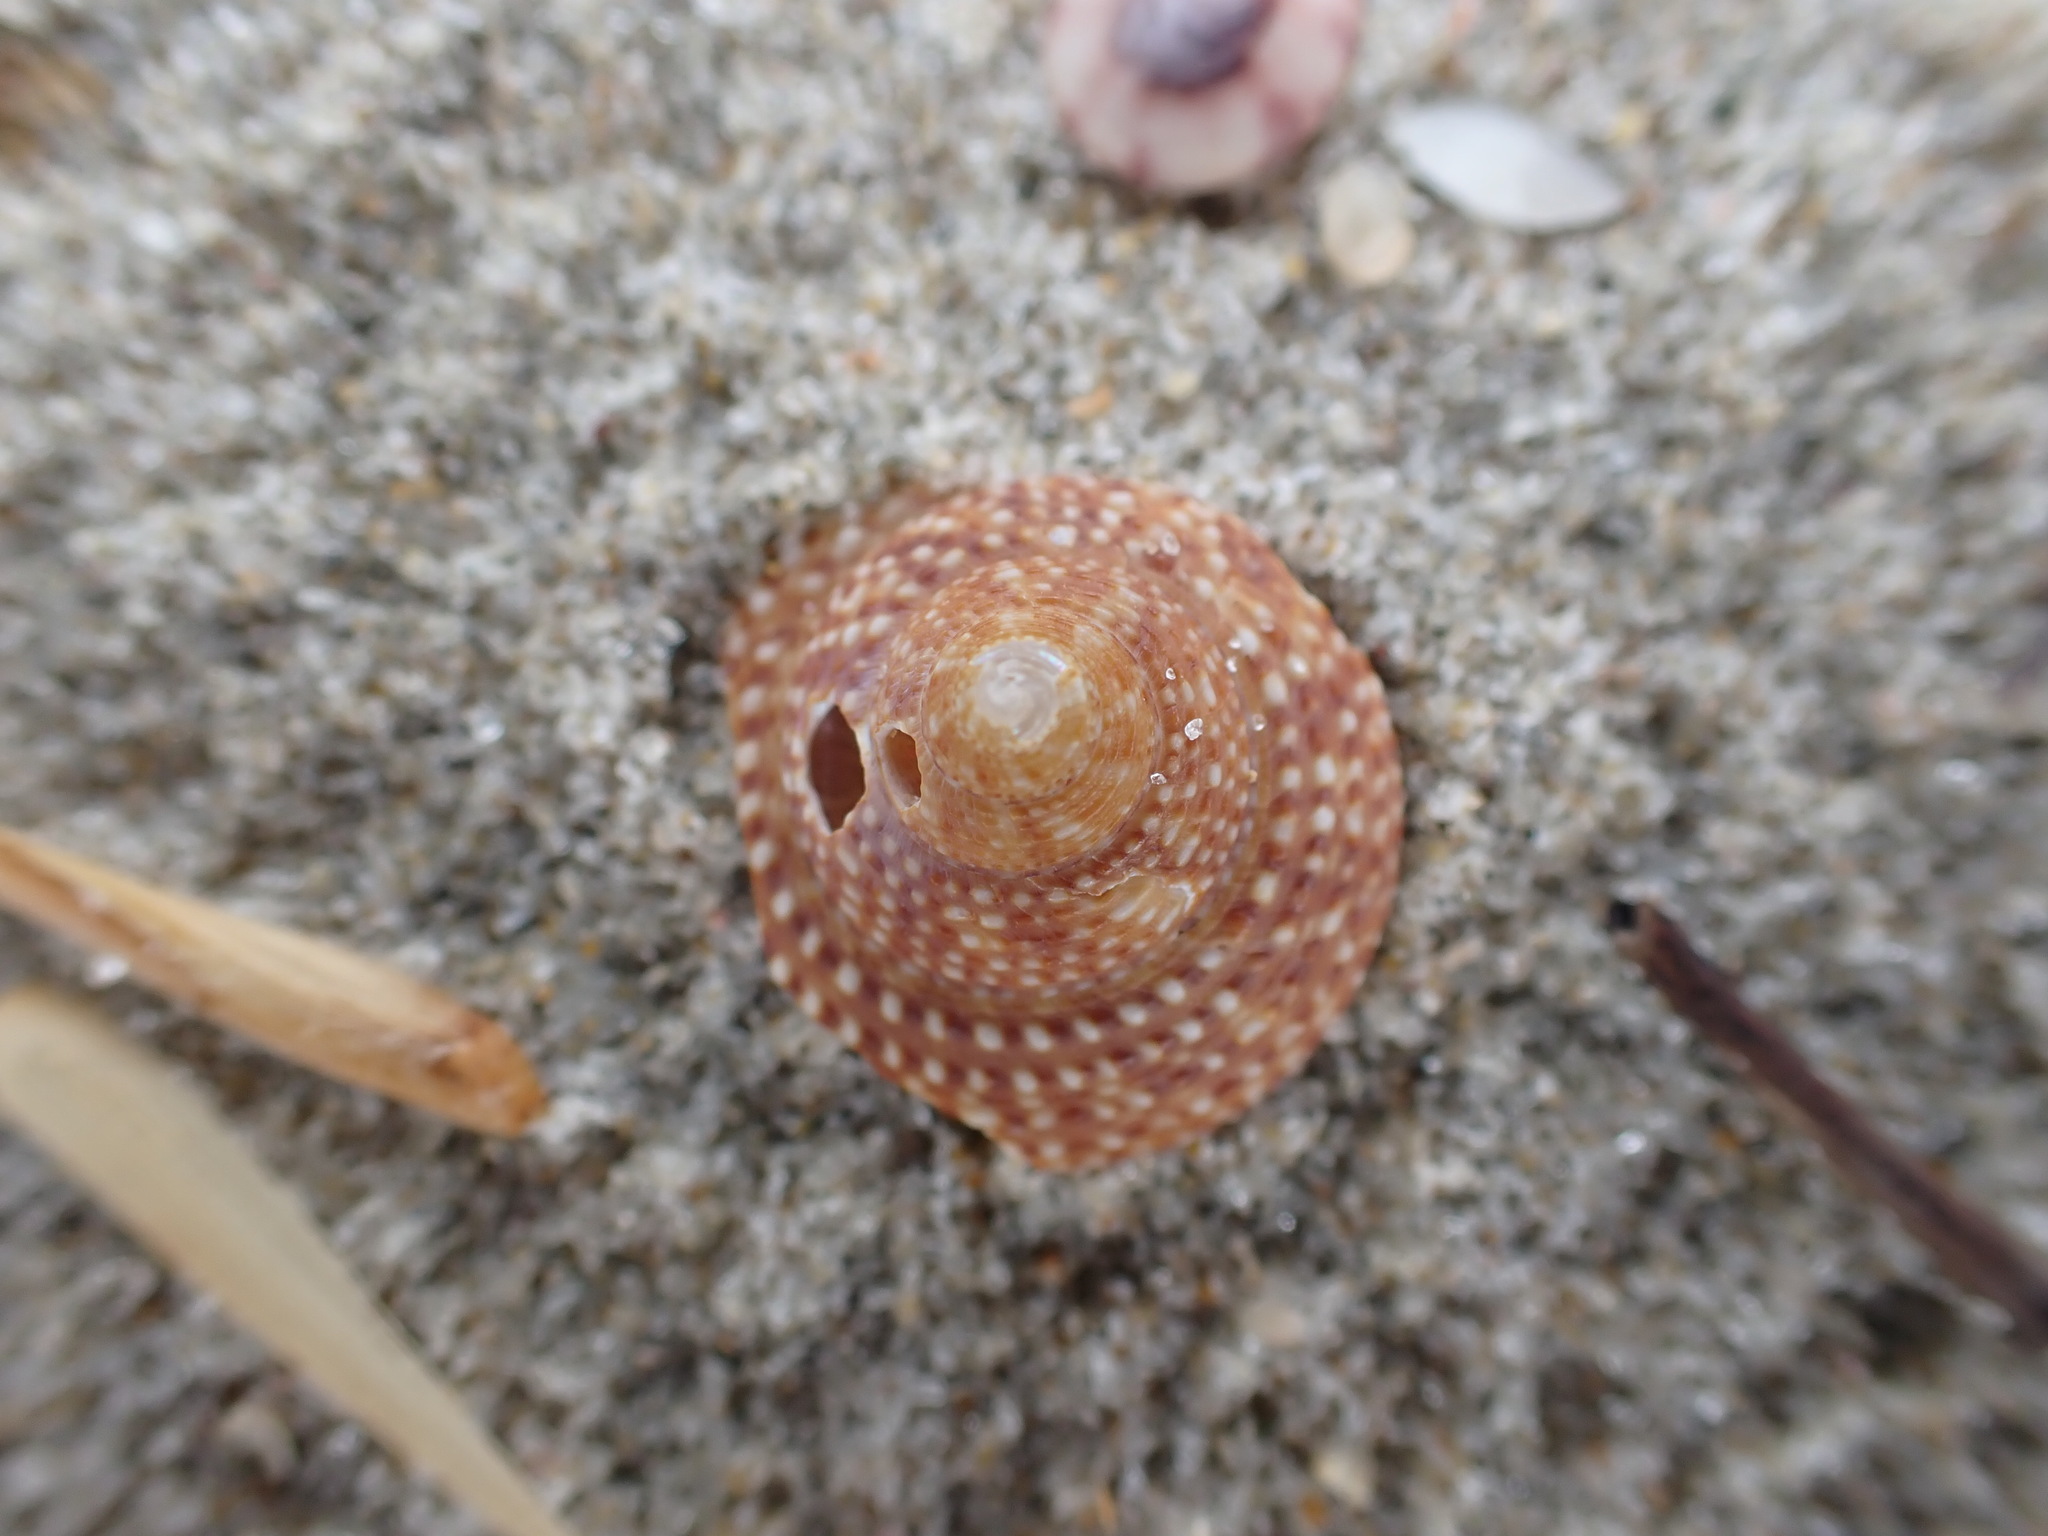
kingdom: Animalia
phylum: Mollusca
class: Gastropoda
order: Trochida
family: Calliostomatidae
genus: Maurea
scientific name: Maurea punctulata
